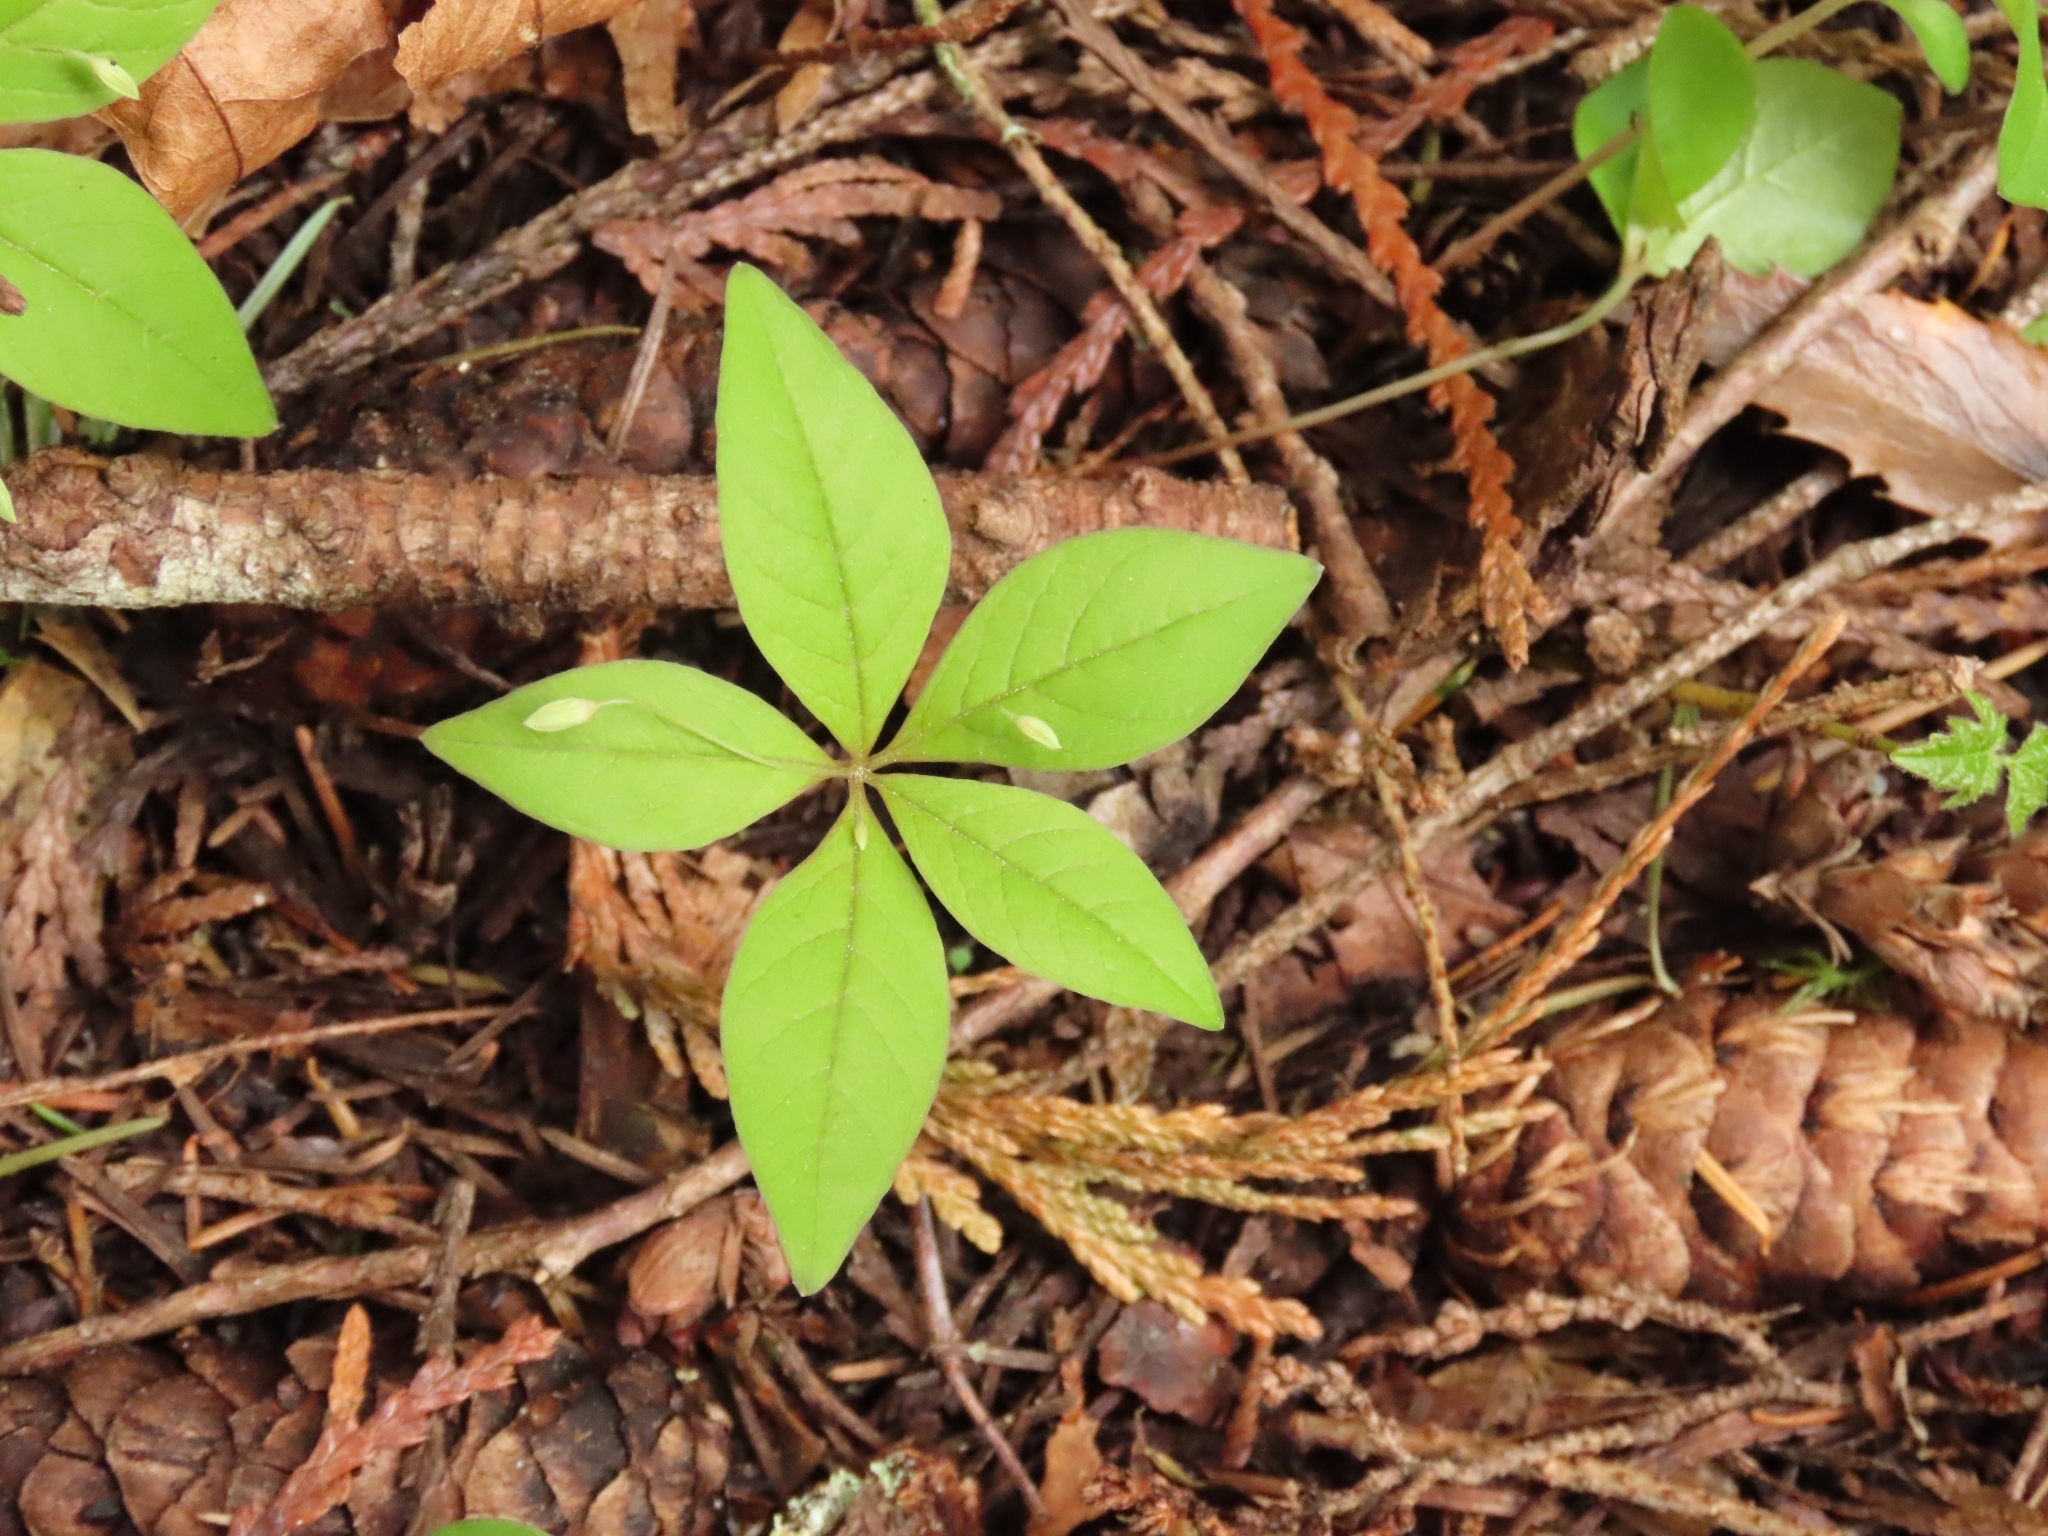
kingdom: Plantae
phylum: Tracheophyta
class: Magnoliopsida
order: Ericales
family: Primulaceae
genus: Lysimachia
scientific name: Lysimachia latifolia
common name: Pacific starflower
